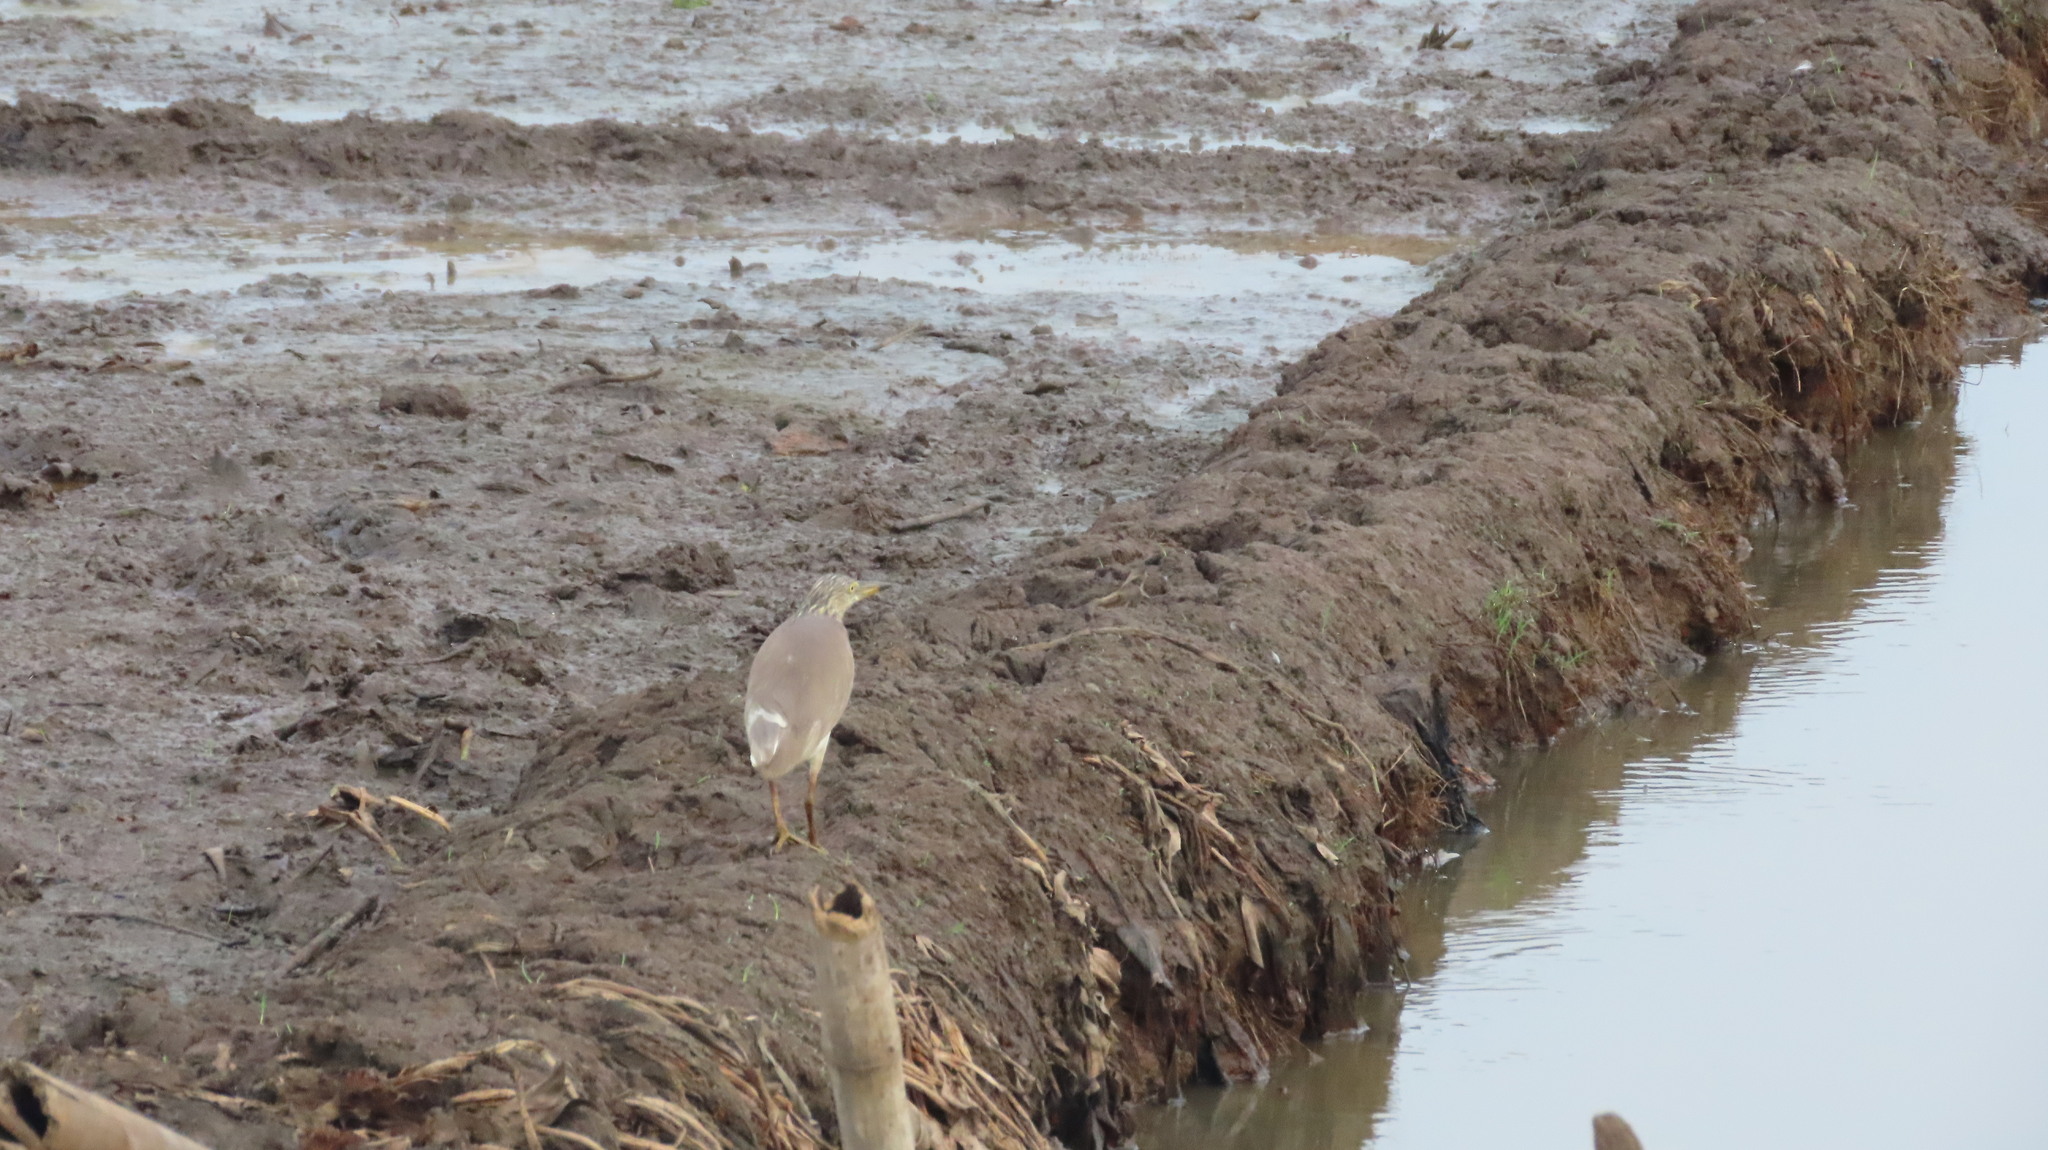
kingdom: Animalia
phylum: Chordata
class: Aves
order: Pelecaniformes
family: Ardeidae
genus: Ardeola
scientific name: Ardeola grayii
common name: Indian pond heron
